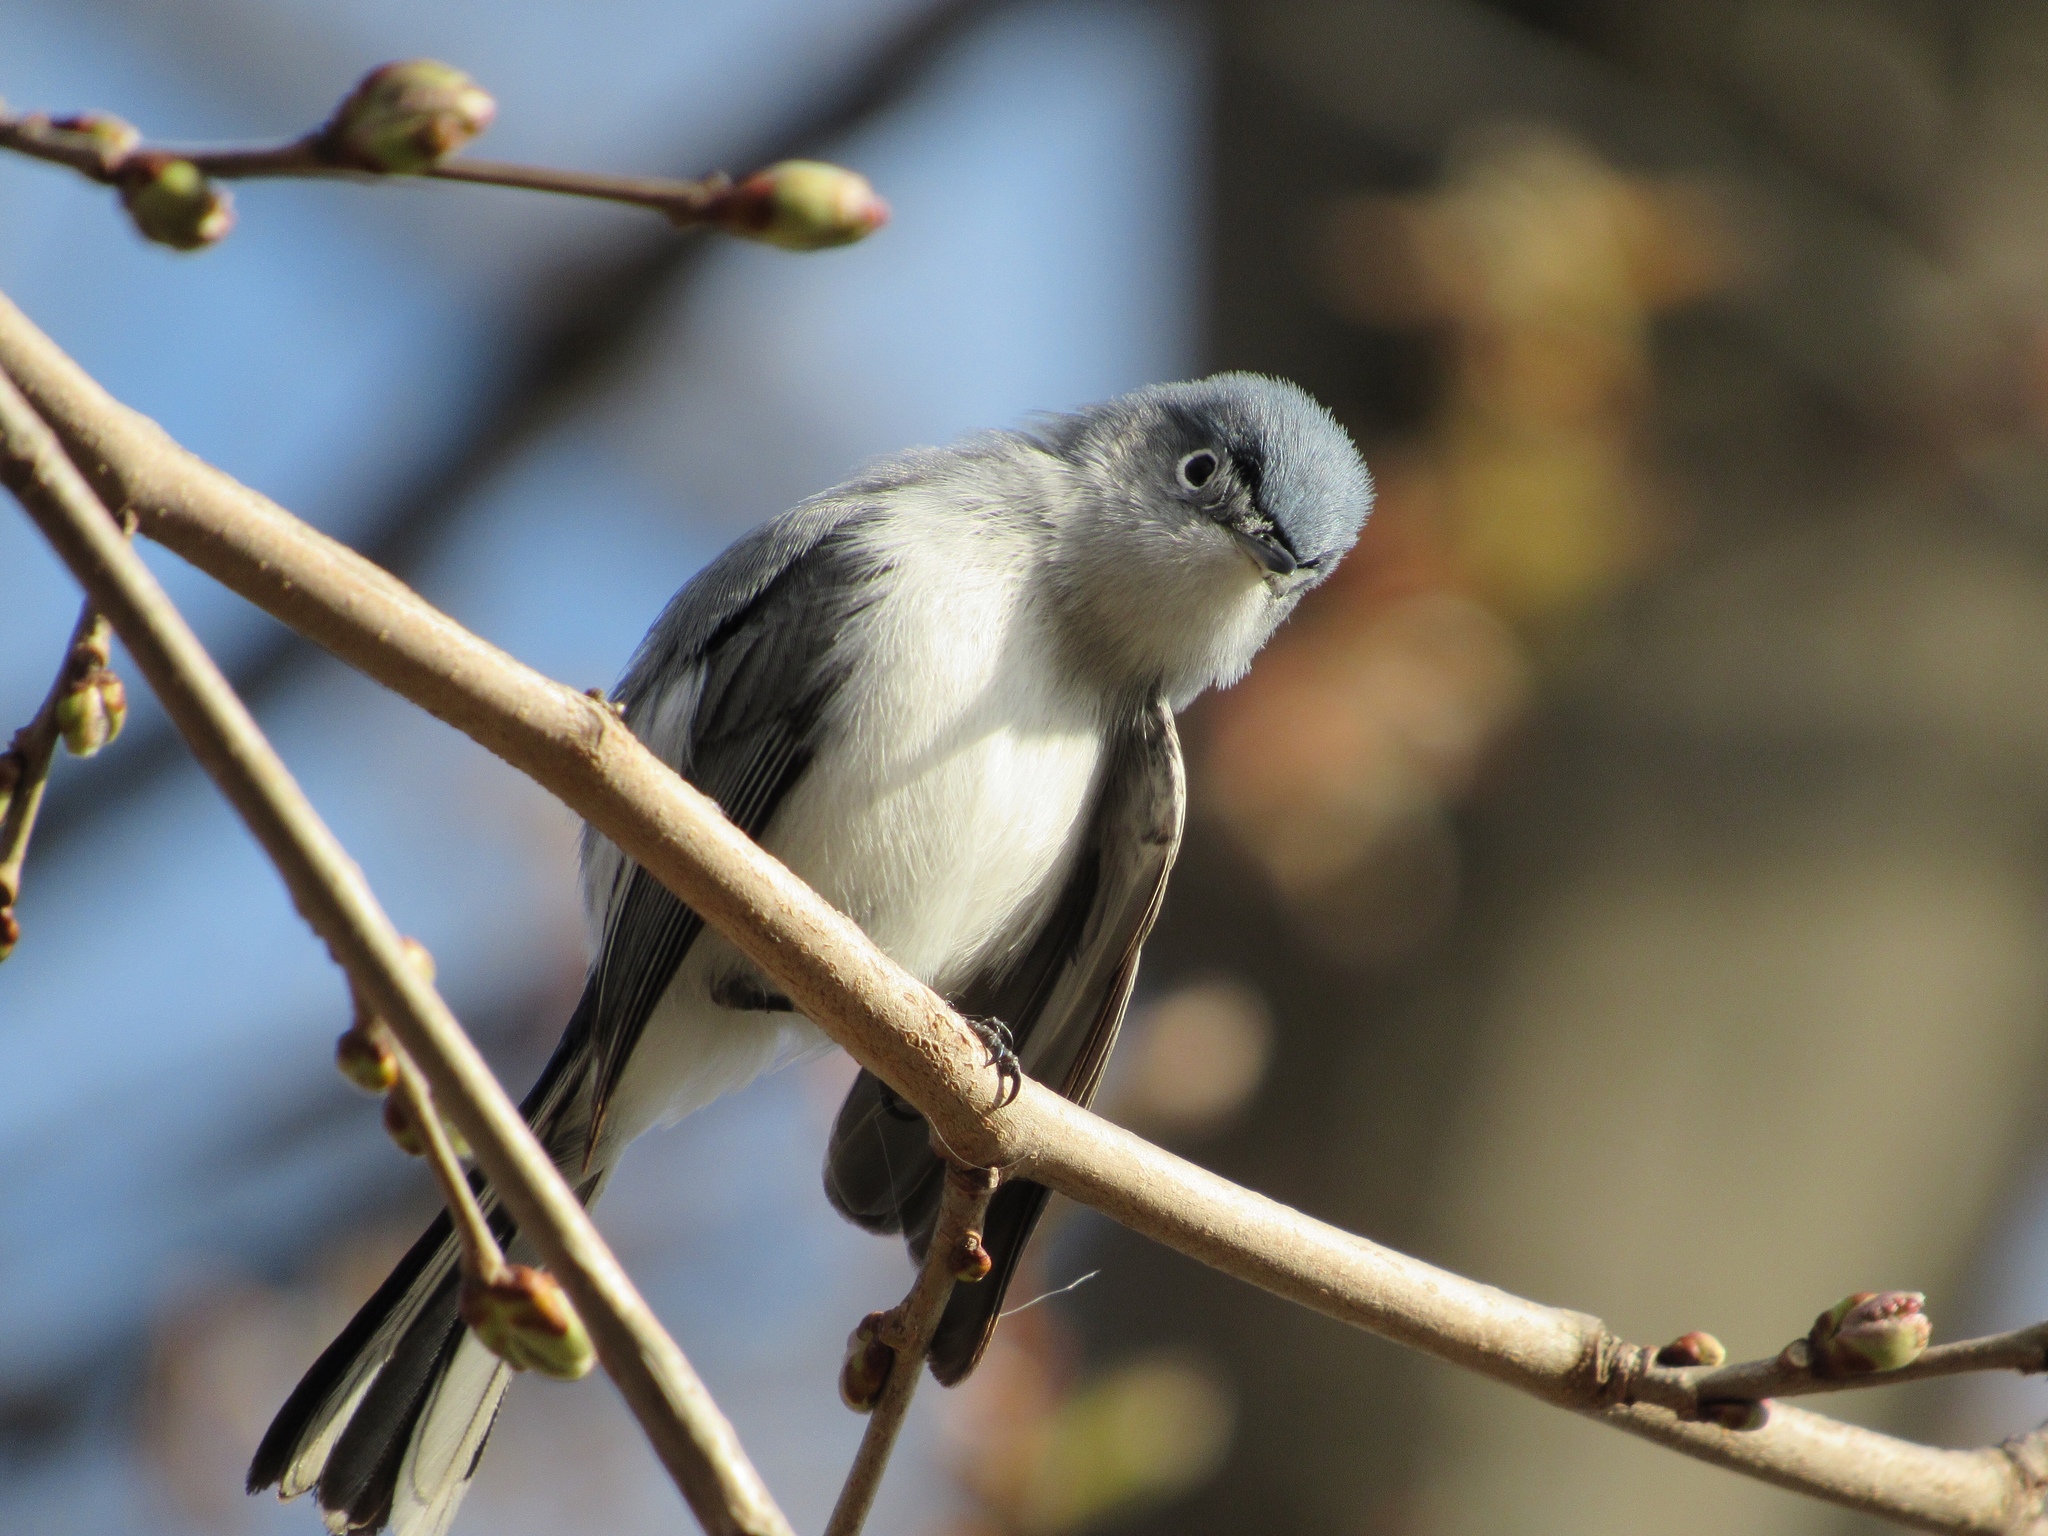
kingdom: Animalia
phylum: Chordata
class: Aves
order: Passeriformes
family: Polioptilidae
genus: Polioptila
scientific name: Polioptila caerulea
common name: Blue-gray gnatcatcher
